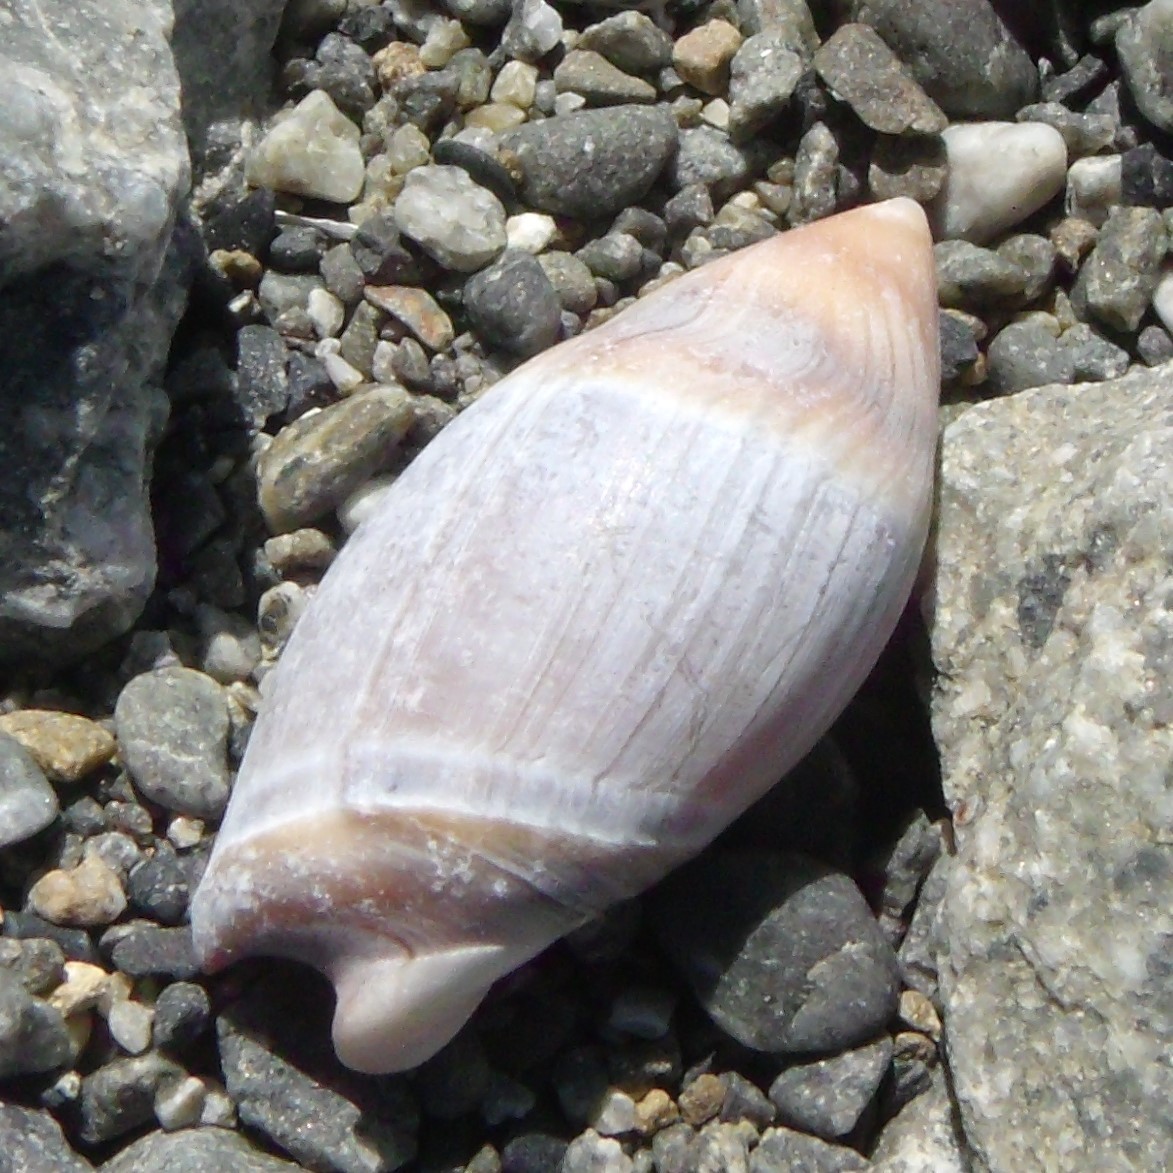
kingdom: Animalia
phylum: Mollusca
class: Gastropoda
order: Neogastropoda
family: Ancillariidae
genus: Amalda
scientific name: Amalda australis
